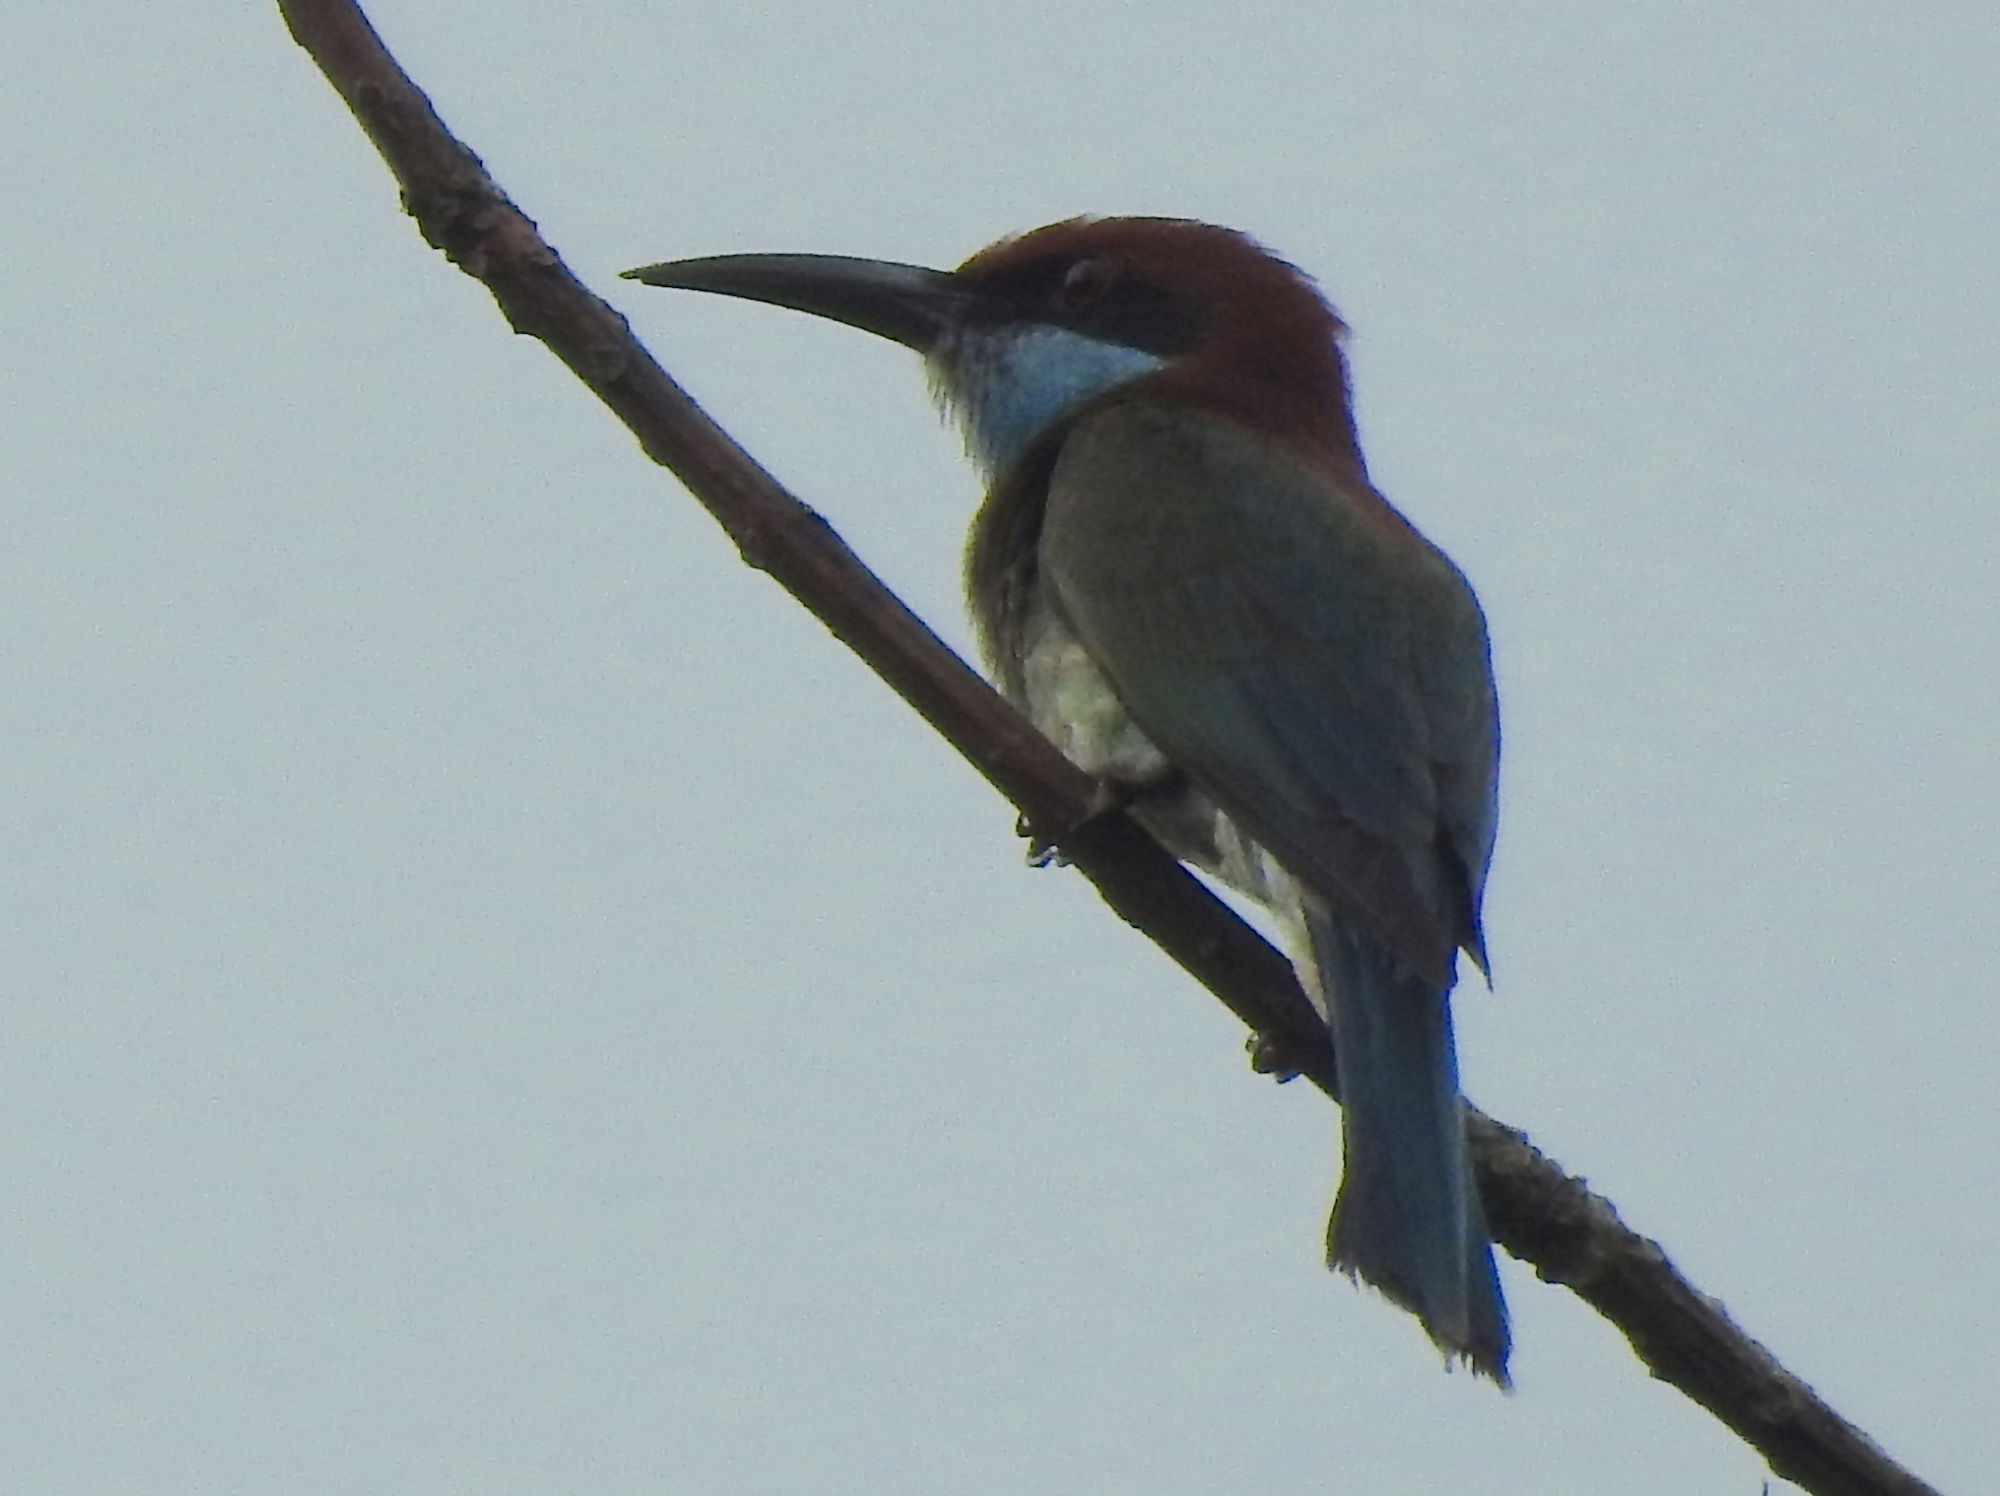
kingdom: Animalia
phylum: Chordata
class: Aves
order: Coraciiformes
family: Meropidae
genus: Merops
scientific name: Merops viridis
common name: Blue-throated bee-eater
